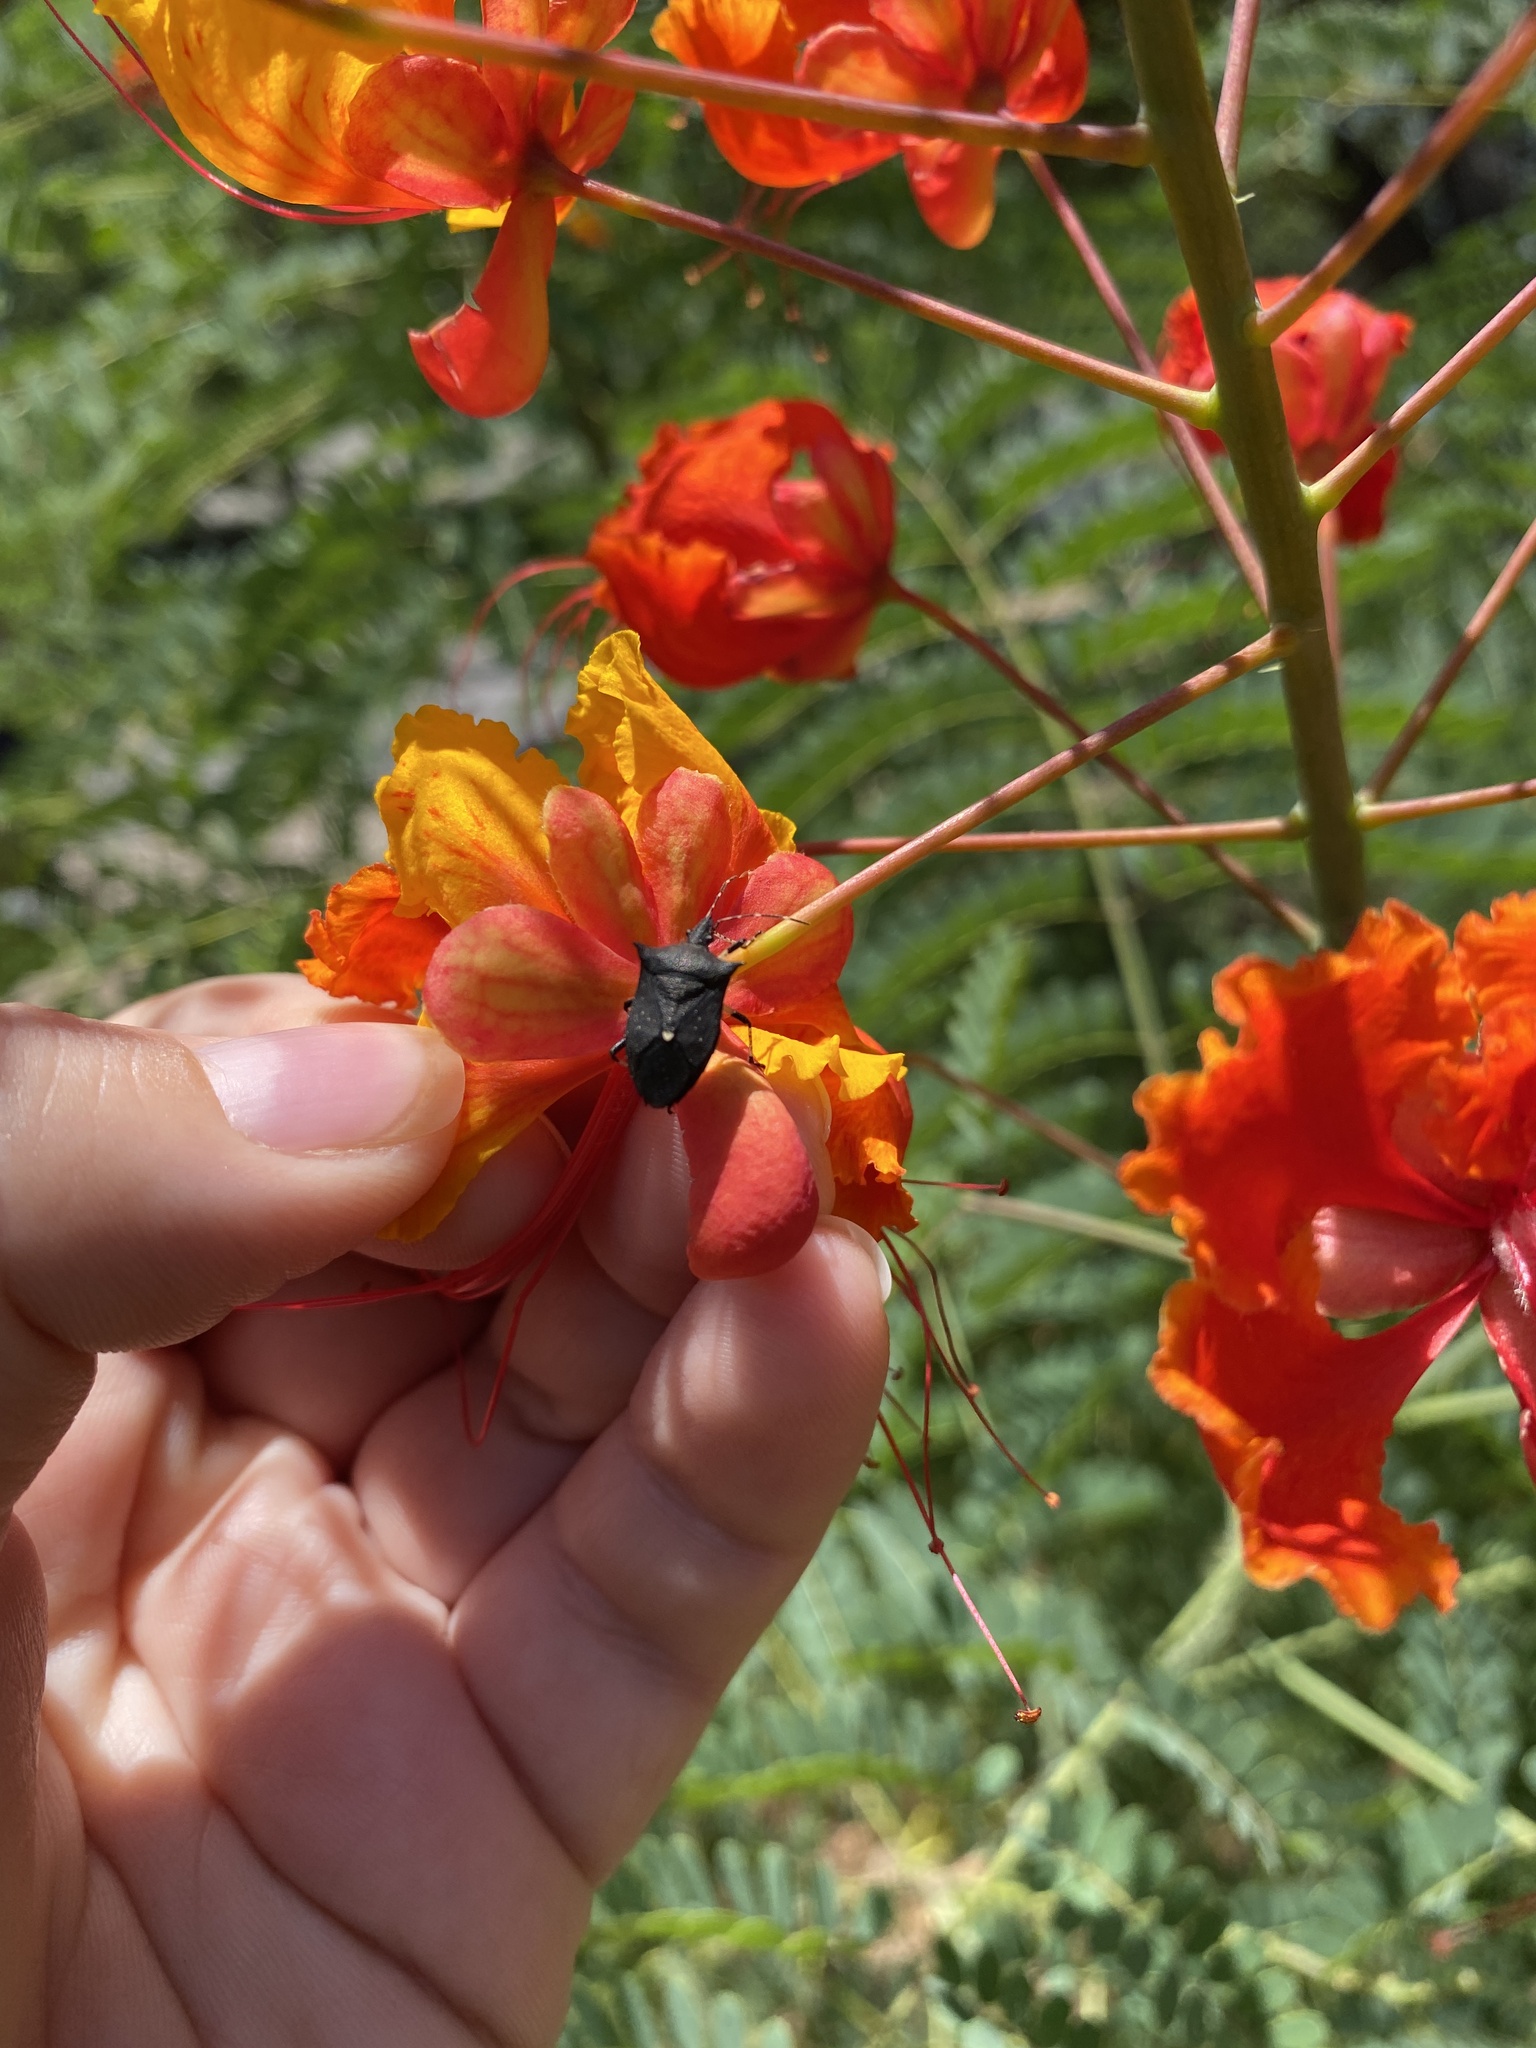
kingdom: Animalia
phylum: Arthropoda
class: Insecta
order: Hemiptera
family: Pentatomidae
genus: Proxys
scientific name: Proxys punctulatus
